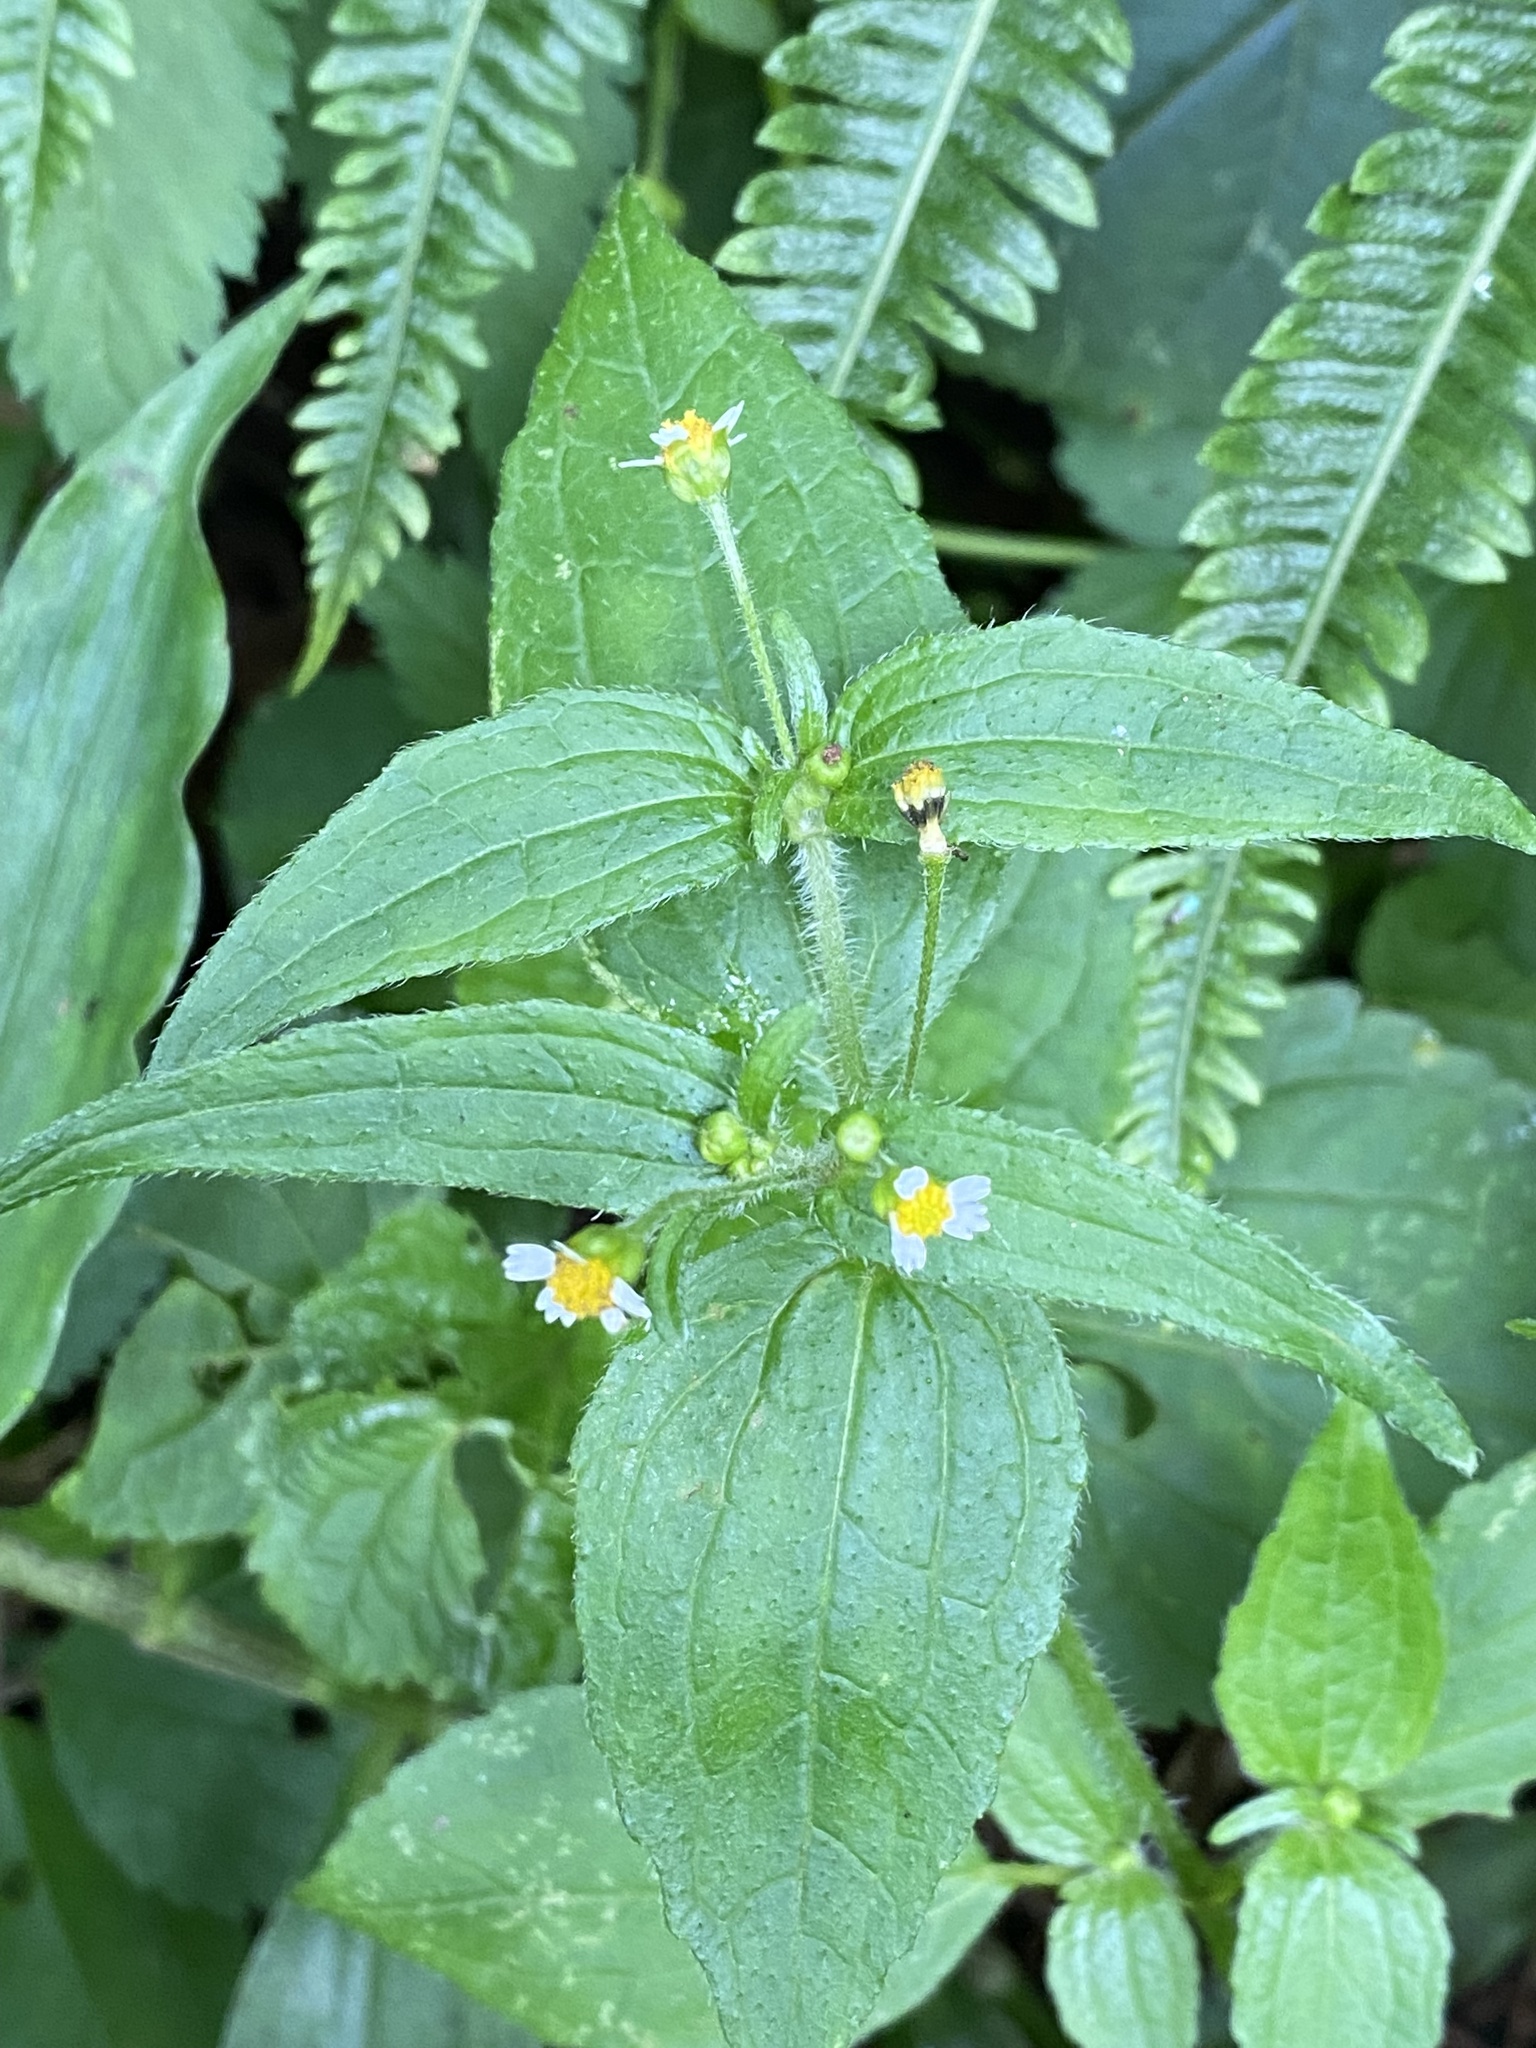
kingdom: Plantae
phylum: Tracheophyta
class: Magnoliopsida
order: Asterales
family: Asteraceae
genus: Galinsoga
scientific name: Galinsoga quadriradiata
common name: Shaggy soldier
